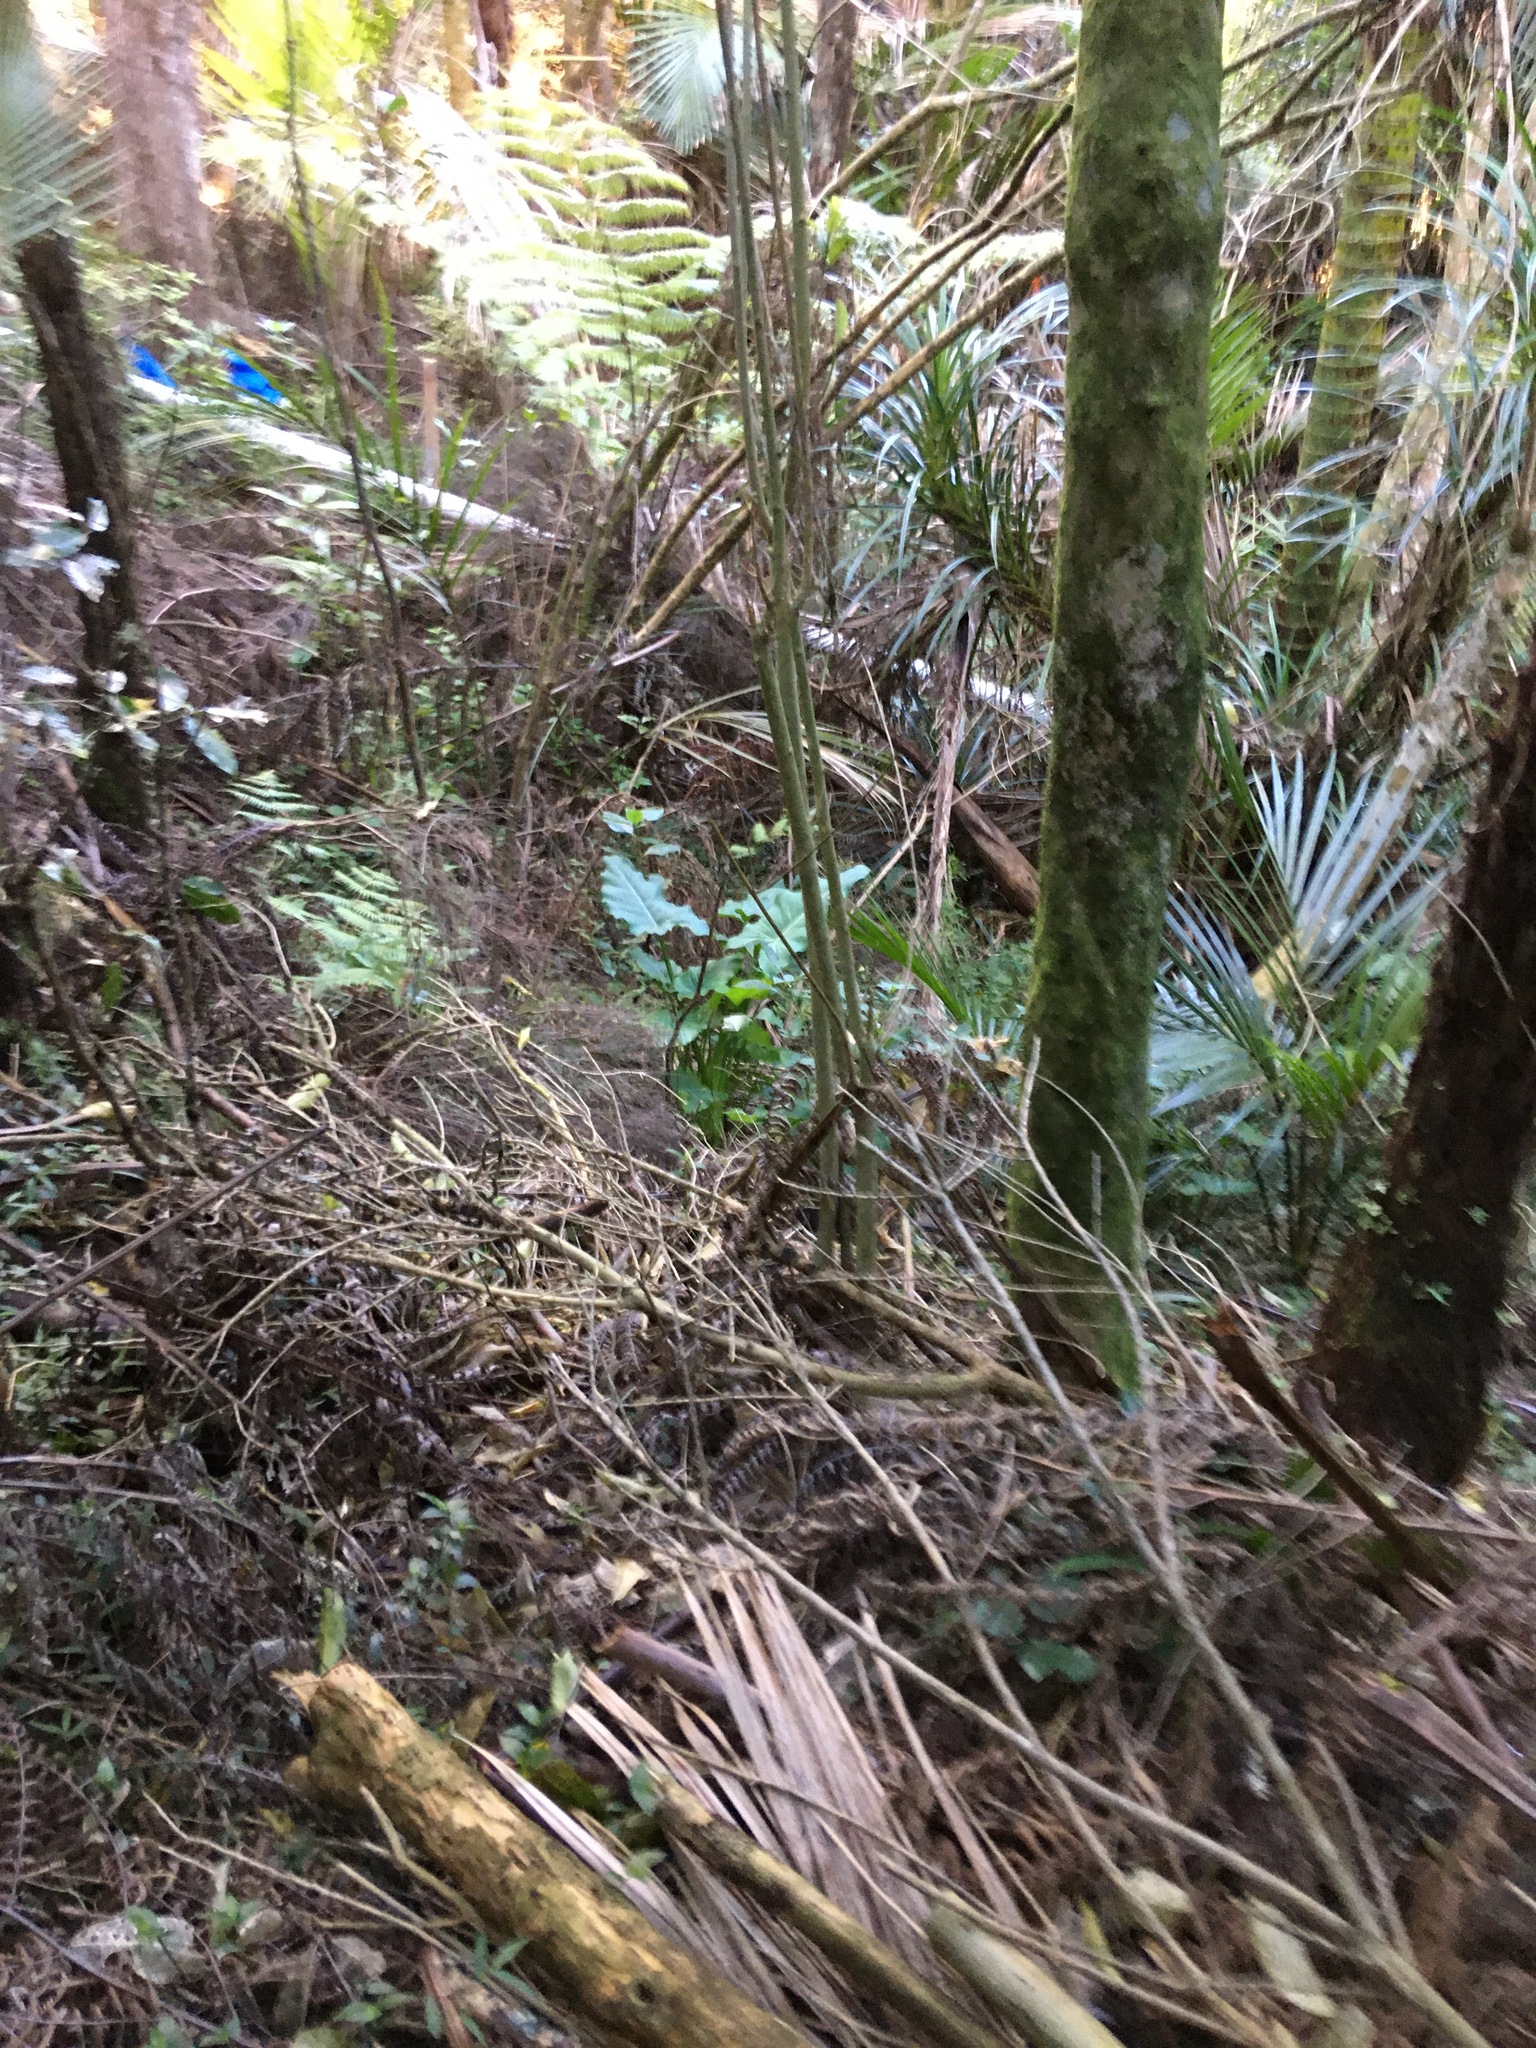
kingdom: Plantae
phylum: Tracheophyta
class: Liliopsida
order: Alismatales
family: Araceae
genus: Zantedeschia
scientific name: Zantedeschia aethiopica
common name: Altar-lily
